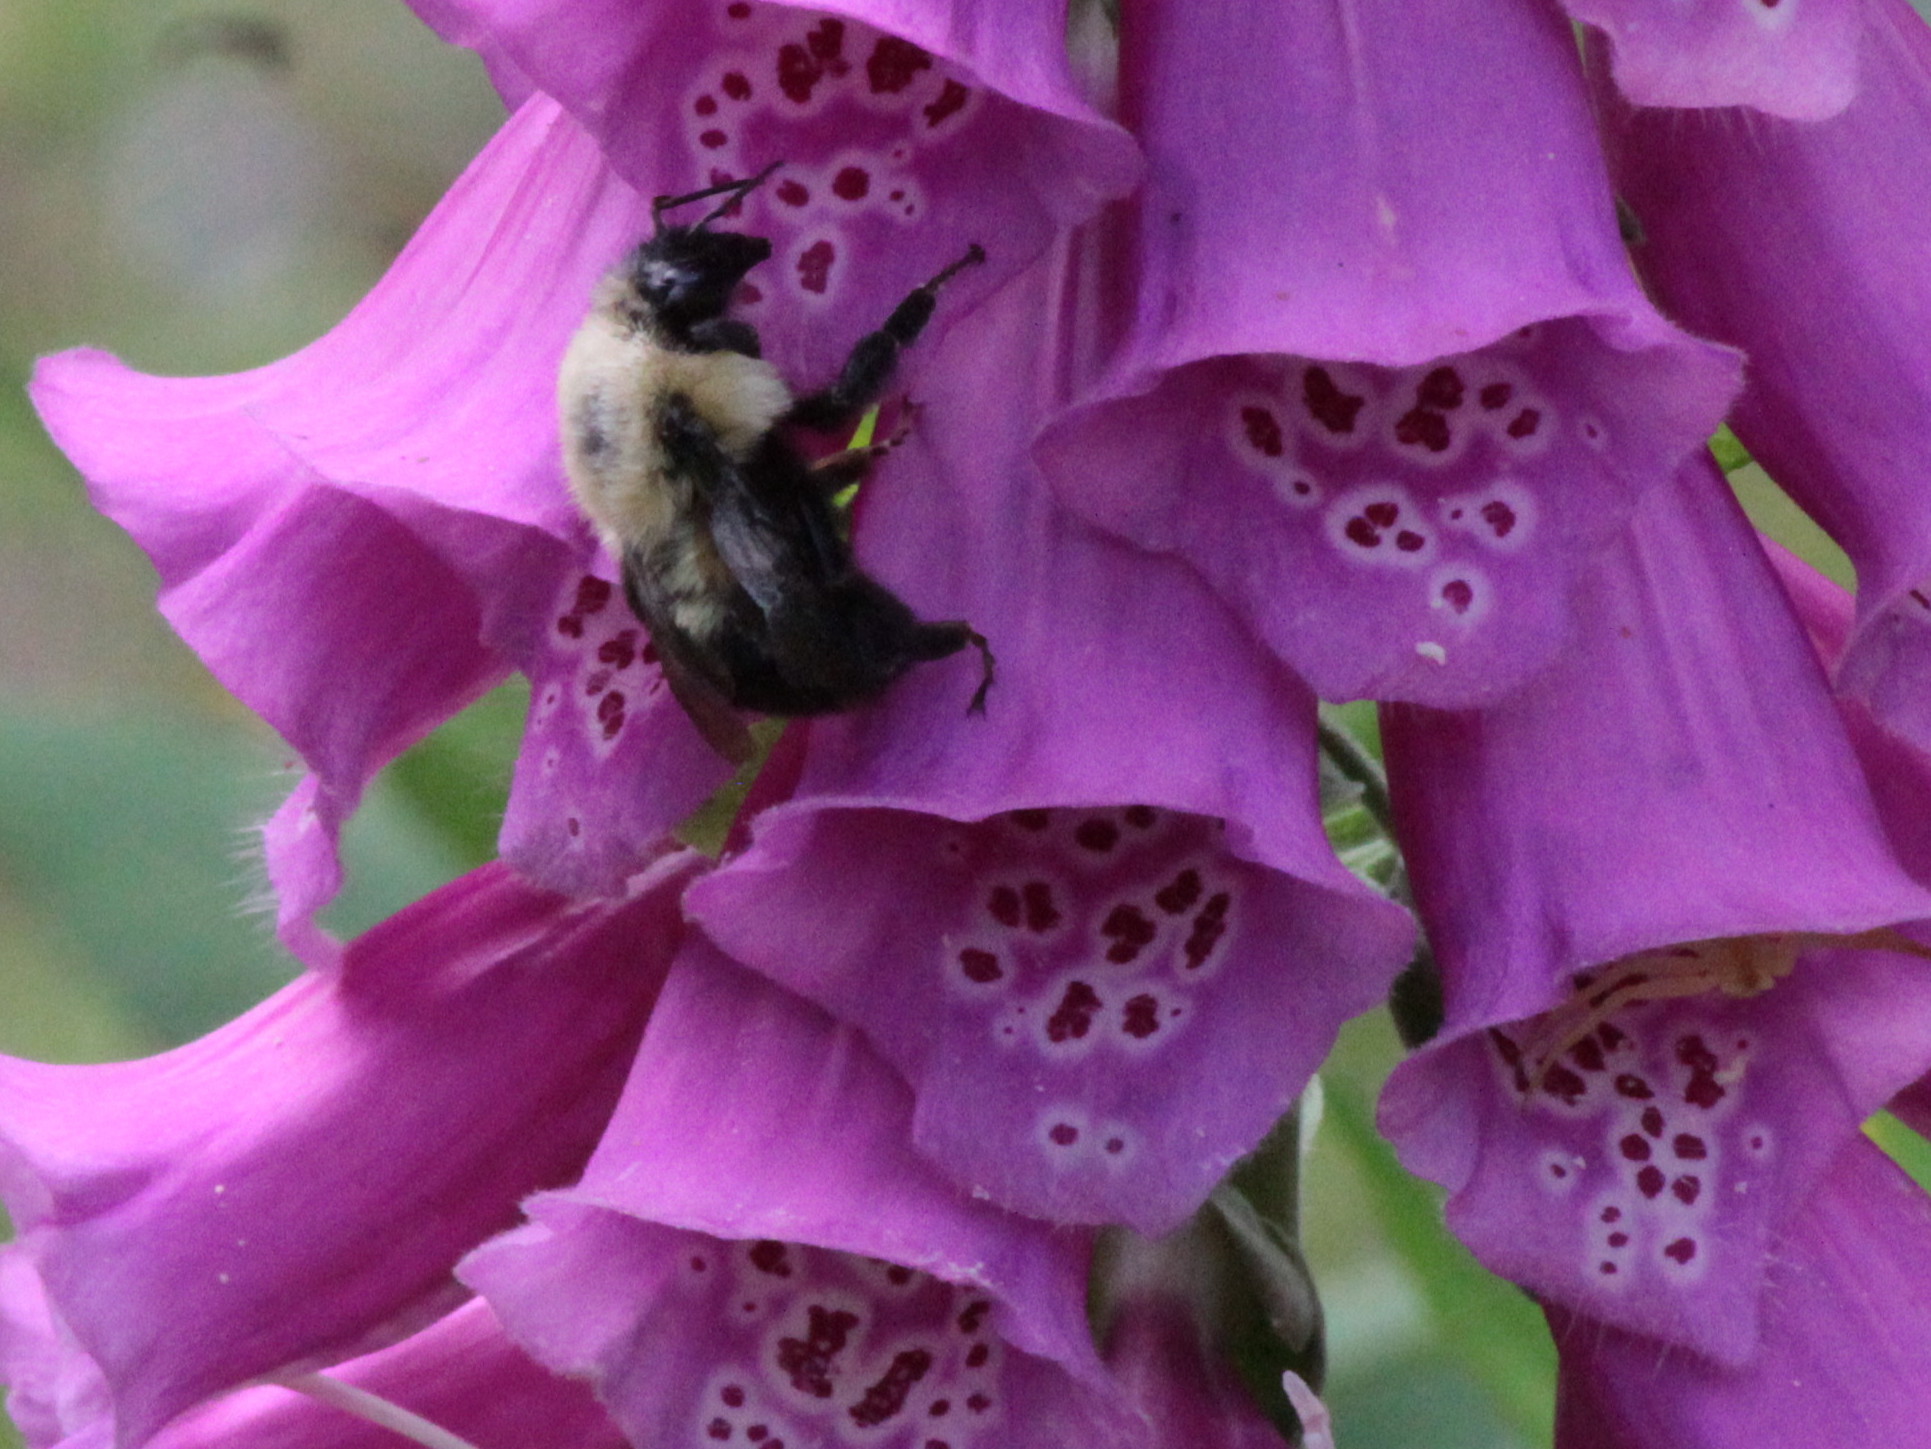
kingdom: Animalia
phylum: Arthropoda
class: Insecta
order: Hymenoptera
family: Apidae
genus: Bombus
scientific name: Bombus bimaculatus
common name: Two-spotted bumble bee
